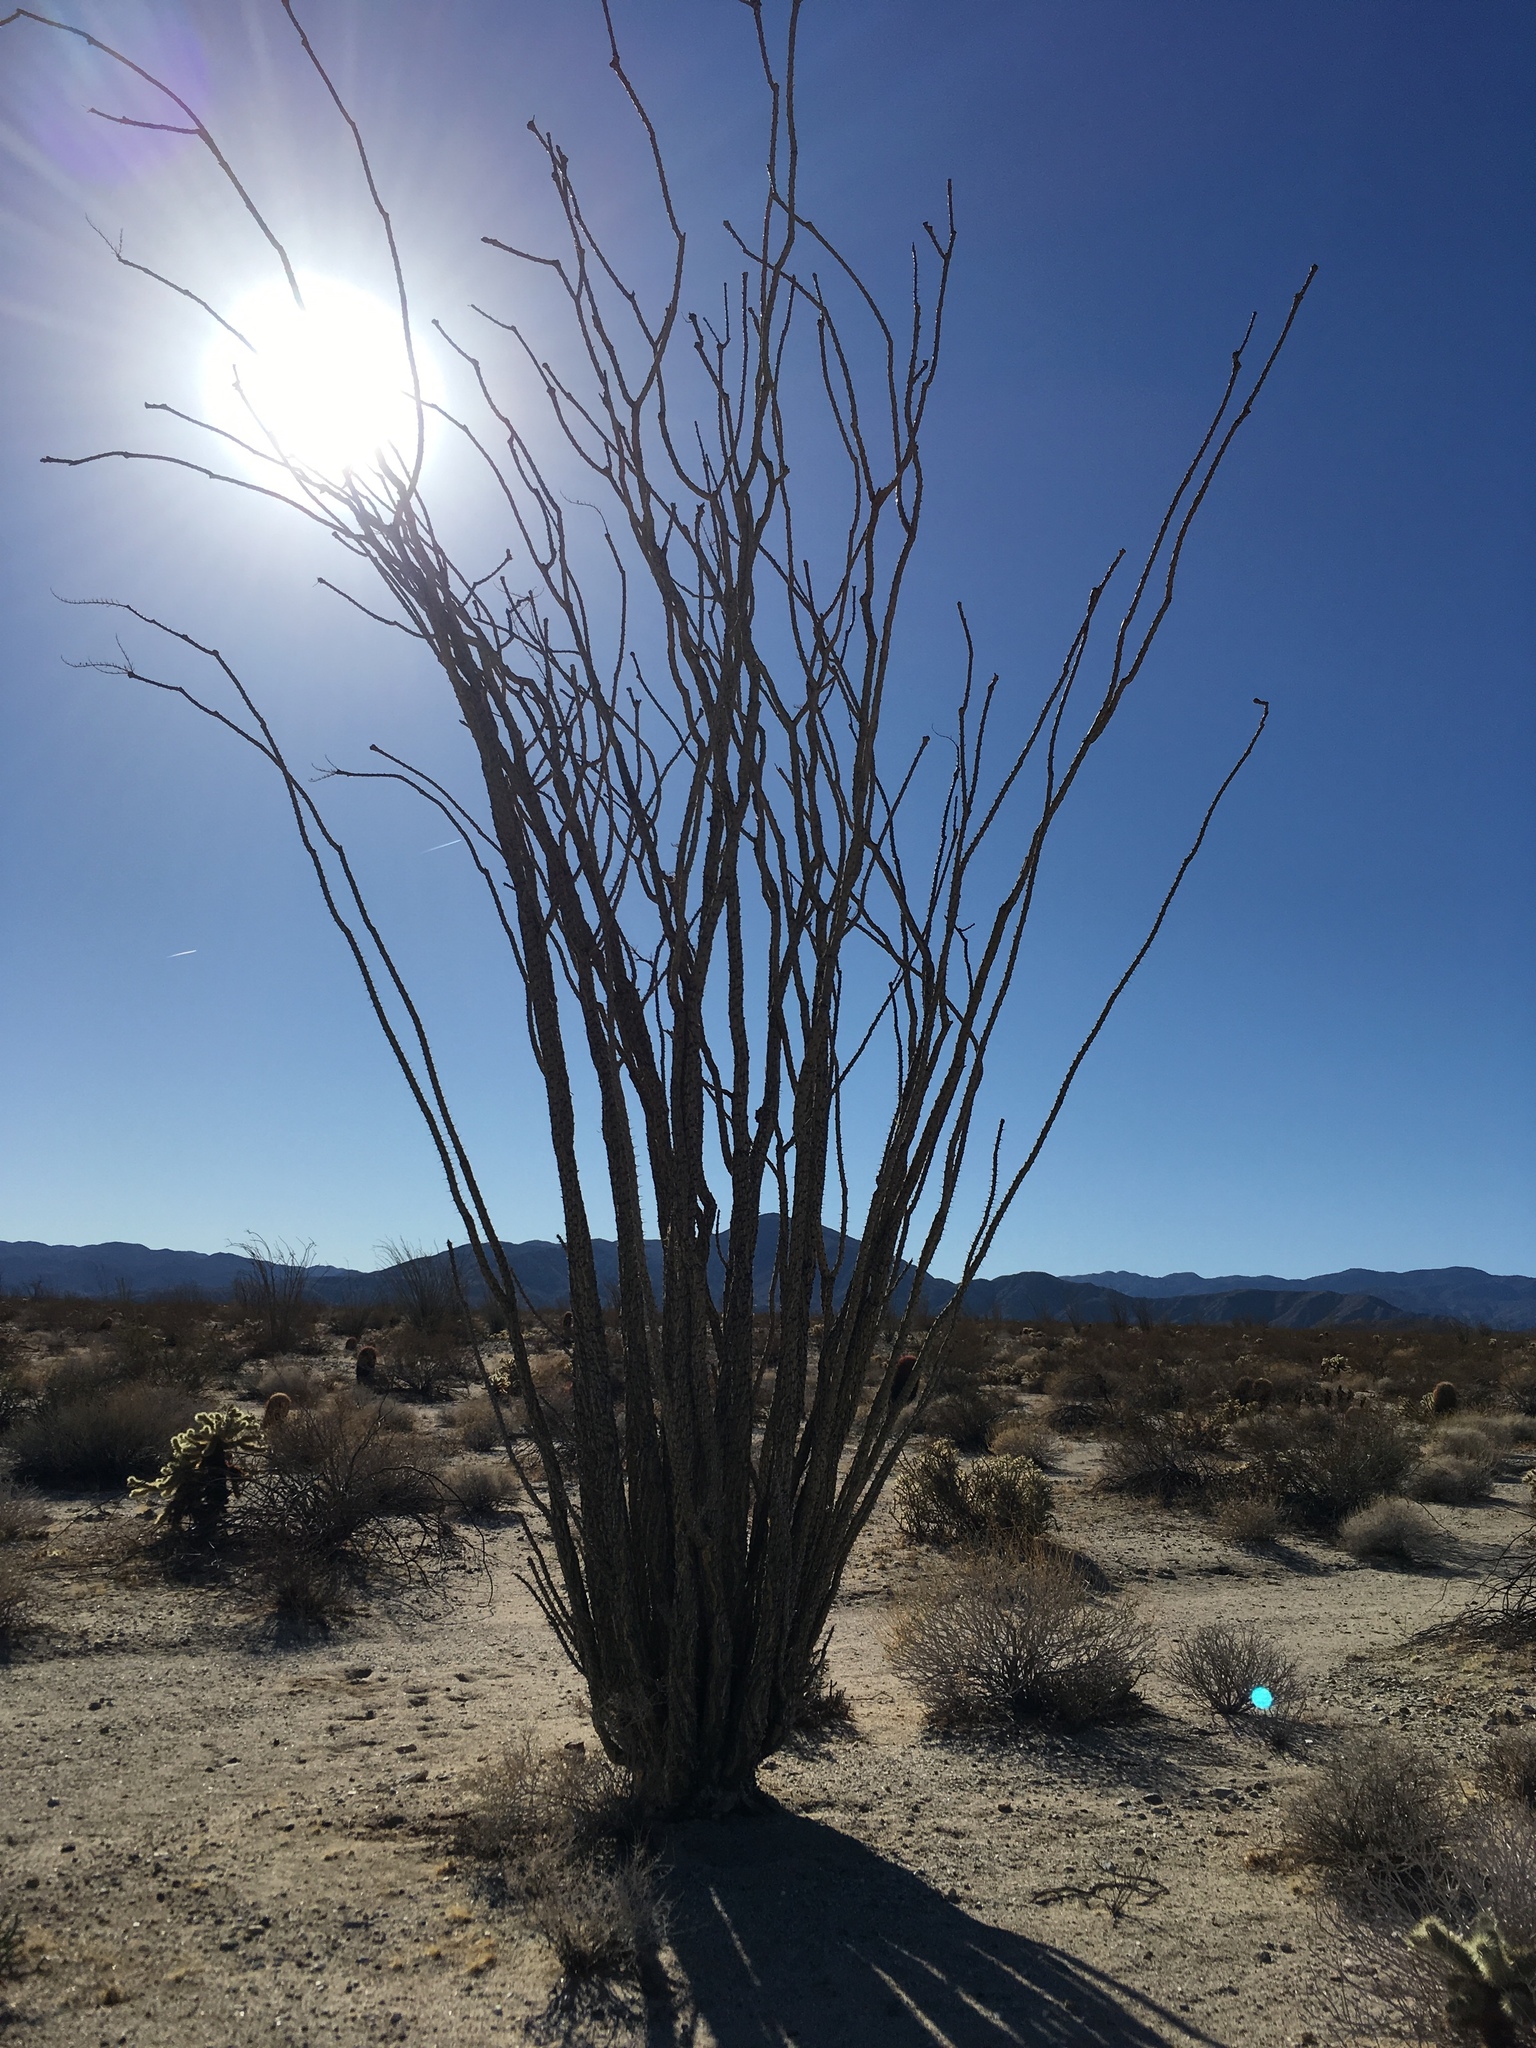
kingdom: Plantae
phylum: Tracheophyta
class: Magnoliopsida
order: Ericales
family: Fouquieriaceae
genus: Fouquieria
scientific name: Fouquieria splendens
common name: Vine-cactus
